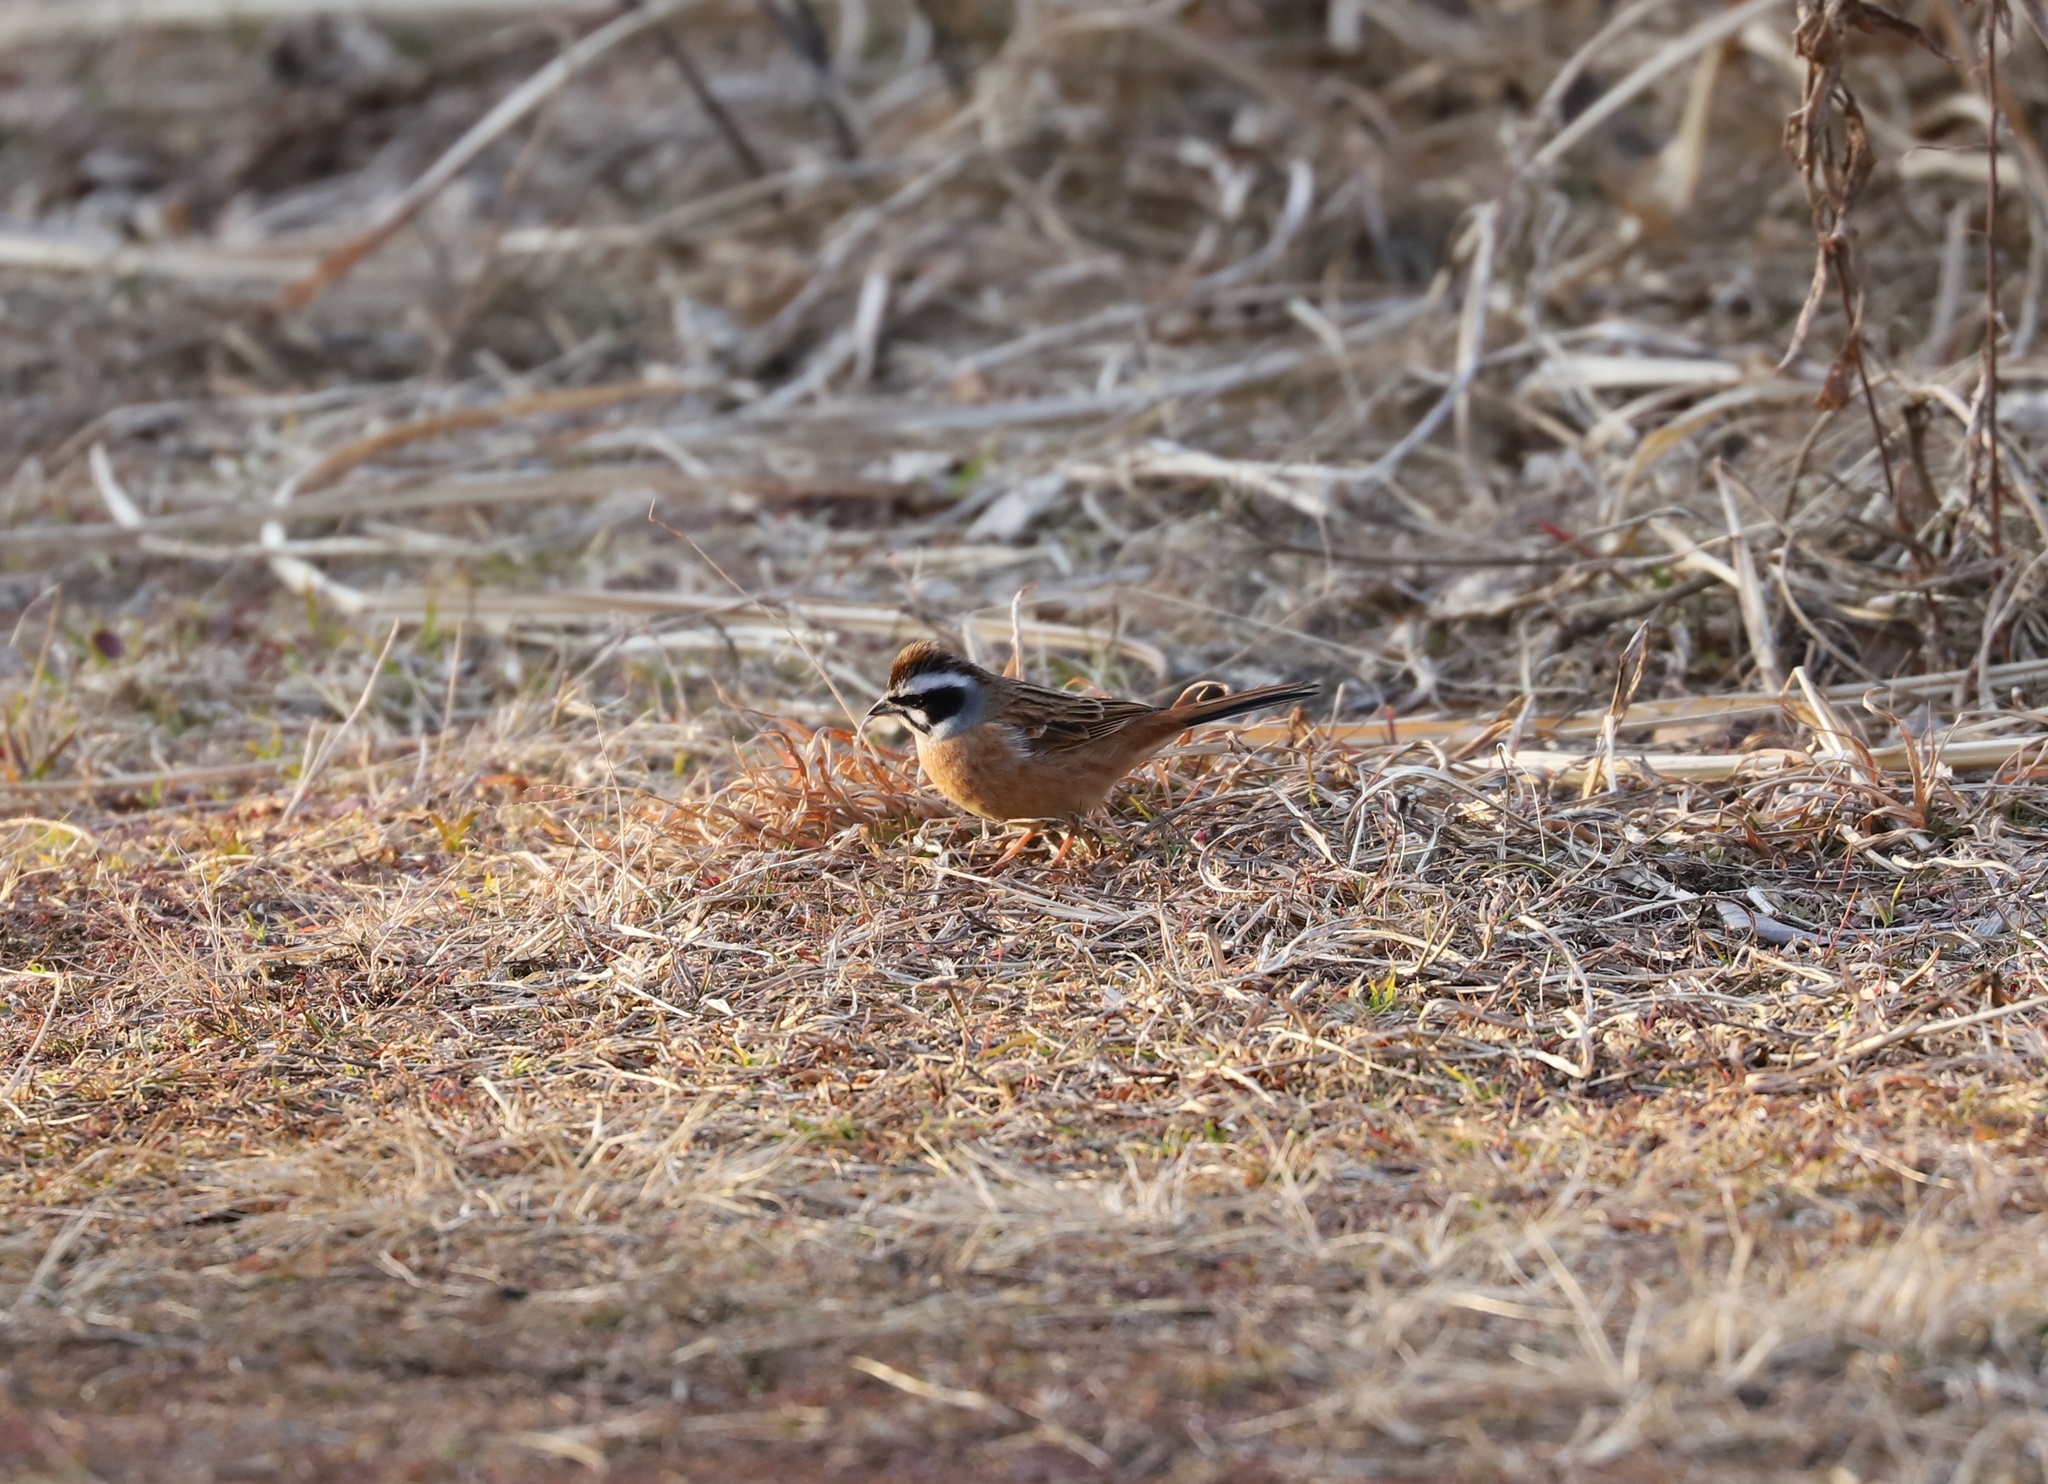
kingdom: Animalia
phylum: Chordata
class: Aves
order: Passeriformes
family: Emberizidae
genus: Emberiza
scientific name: Emberiza cioides
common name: Meadow bunting
